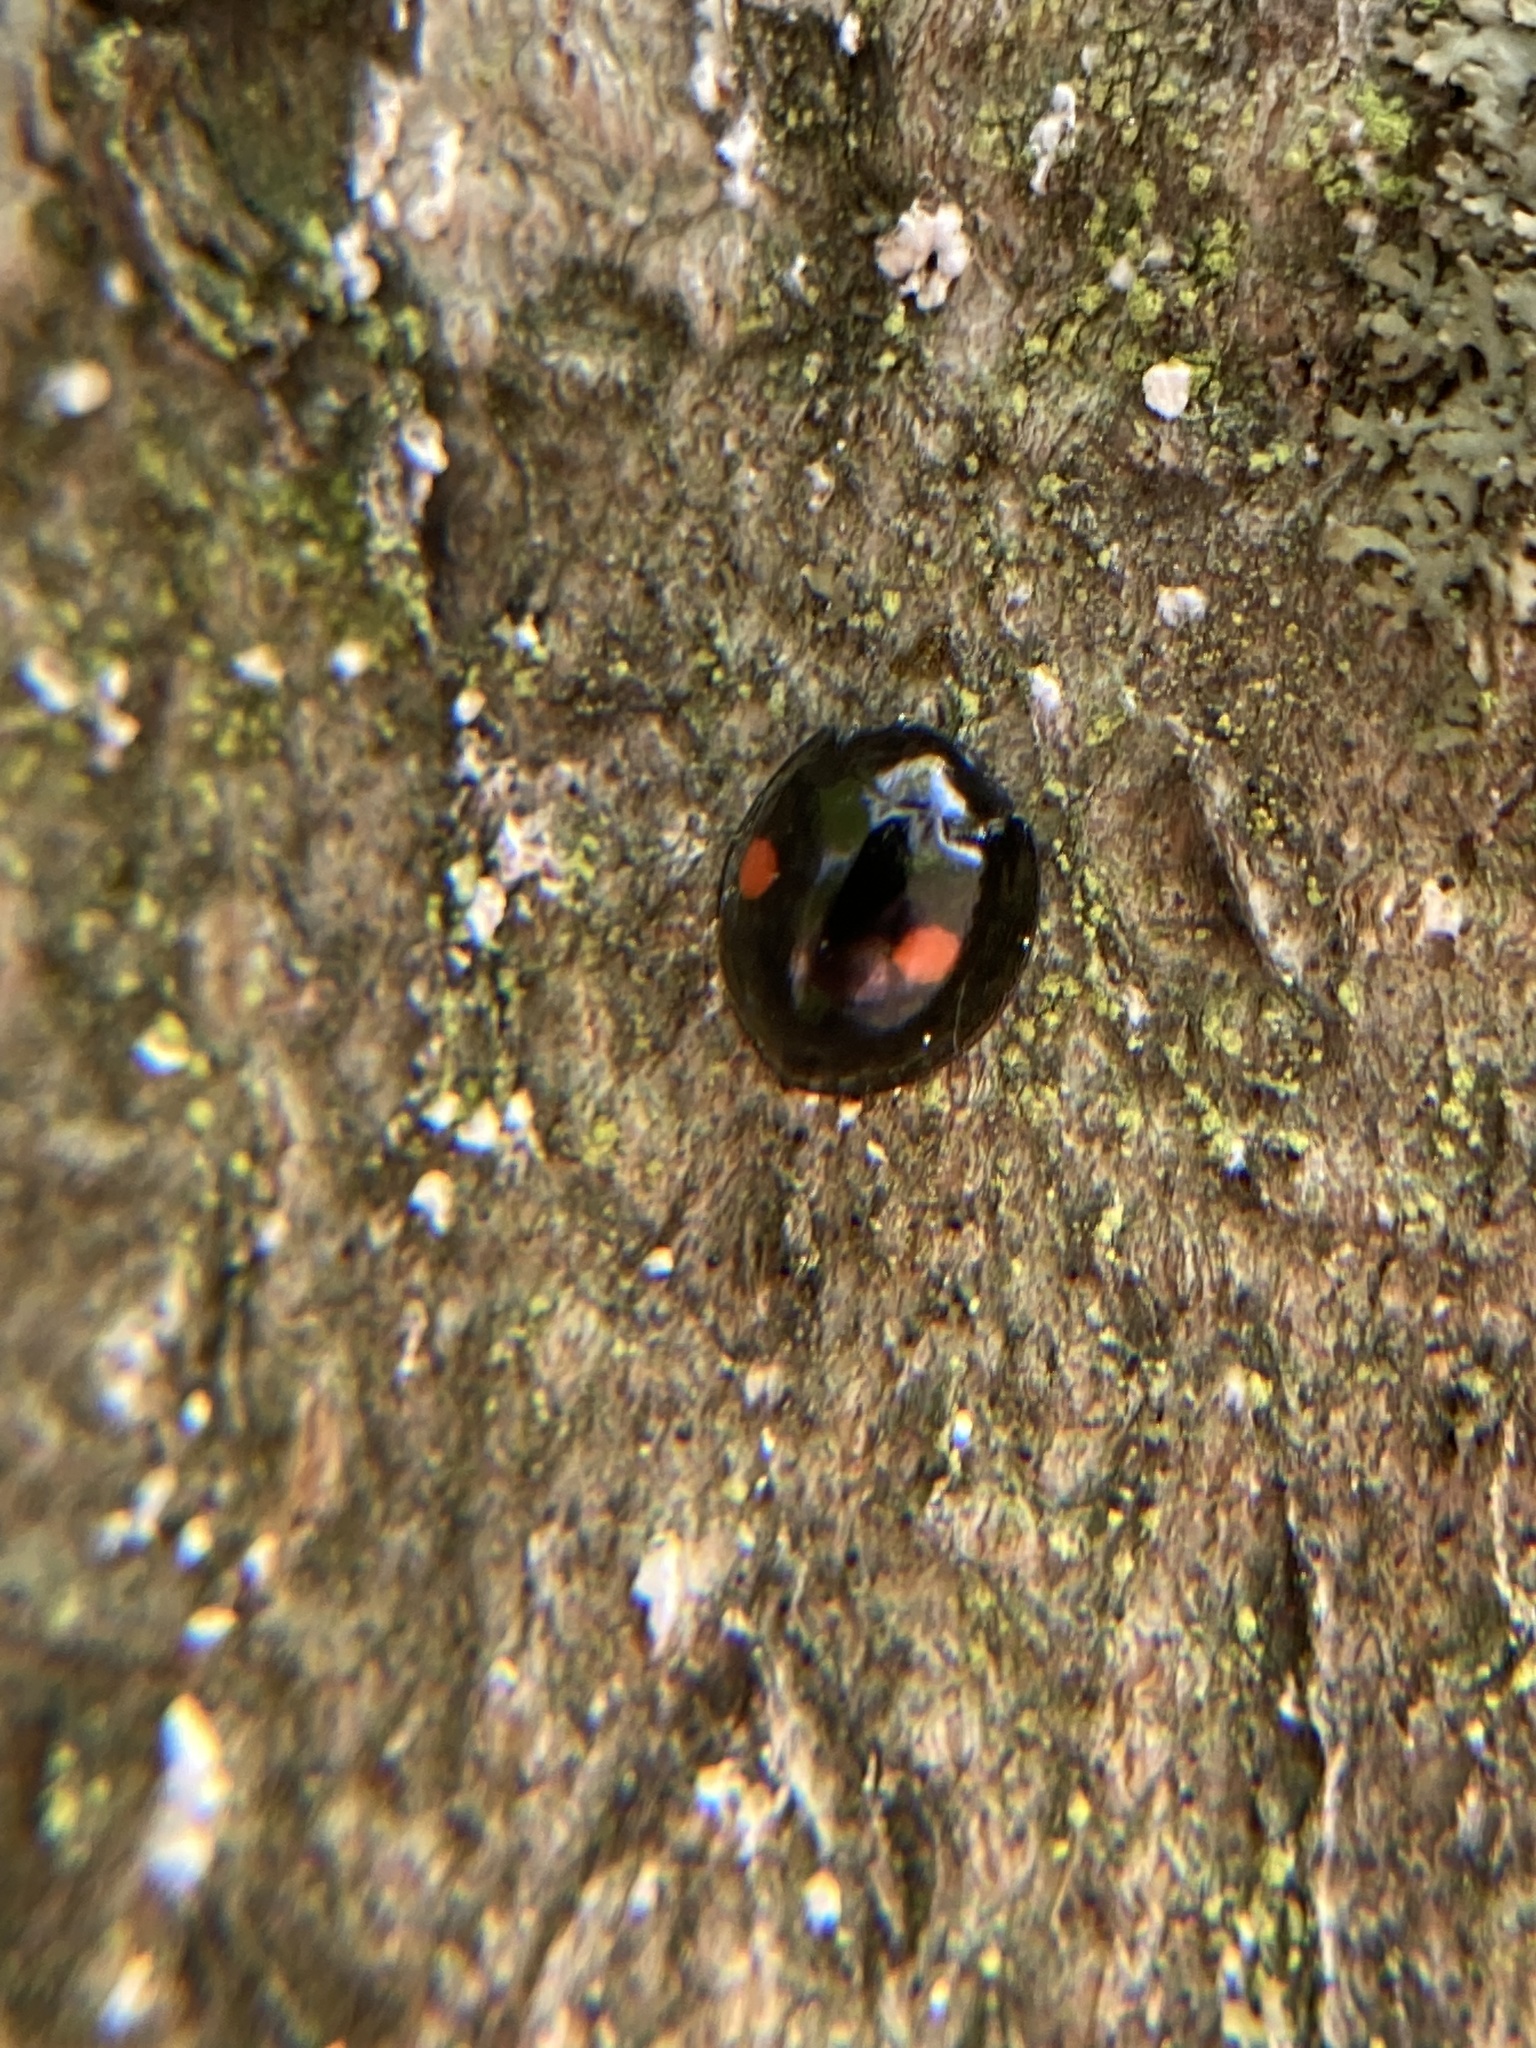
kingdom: Animalia
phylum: Arthropoda
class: Insecta
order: Coleoptera
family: Coccinellidae
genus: Chilocorus
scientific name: Chilocorus stigma
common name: Twicestabbed lady beetle
